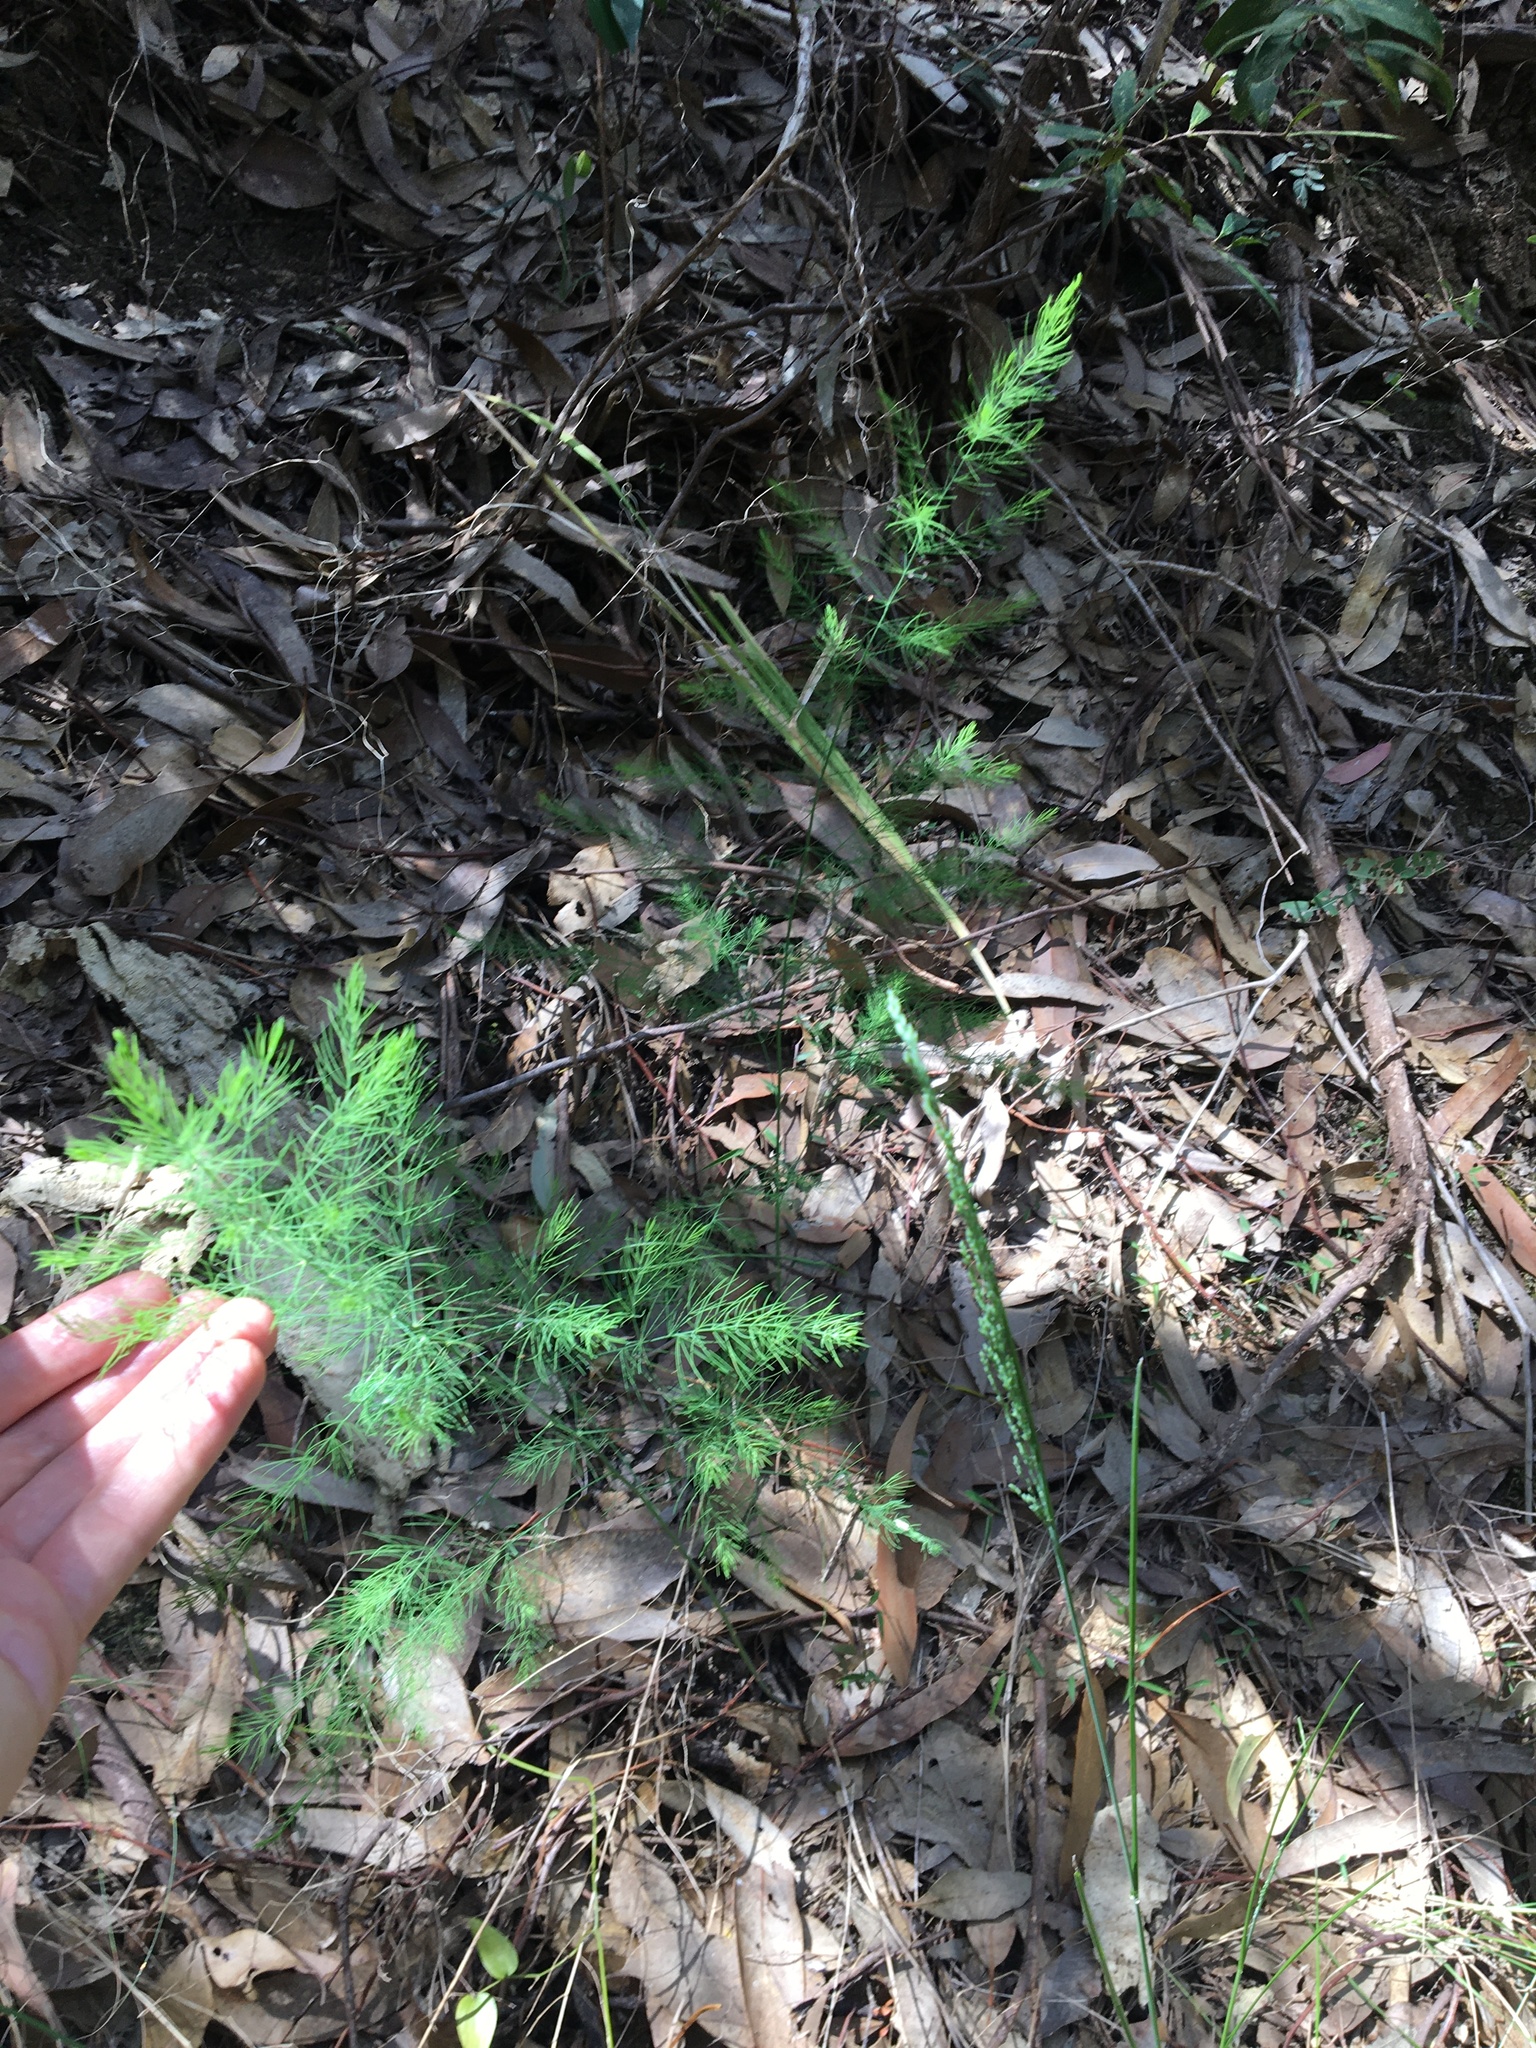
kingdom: Plantae
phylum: Tracheophyta
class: Liliopsida
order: Asparagales
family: Asparagaceae
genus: Asparagus
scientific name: Asparagus officinalis
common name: Garden asparagus
